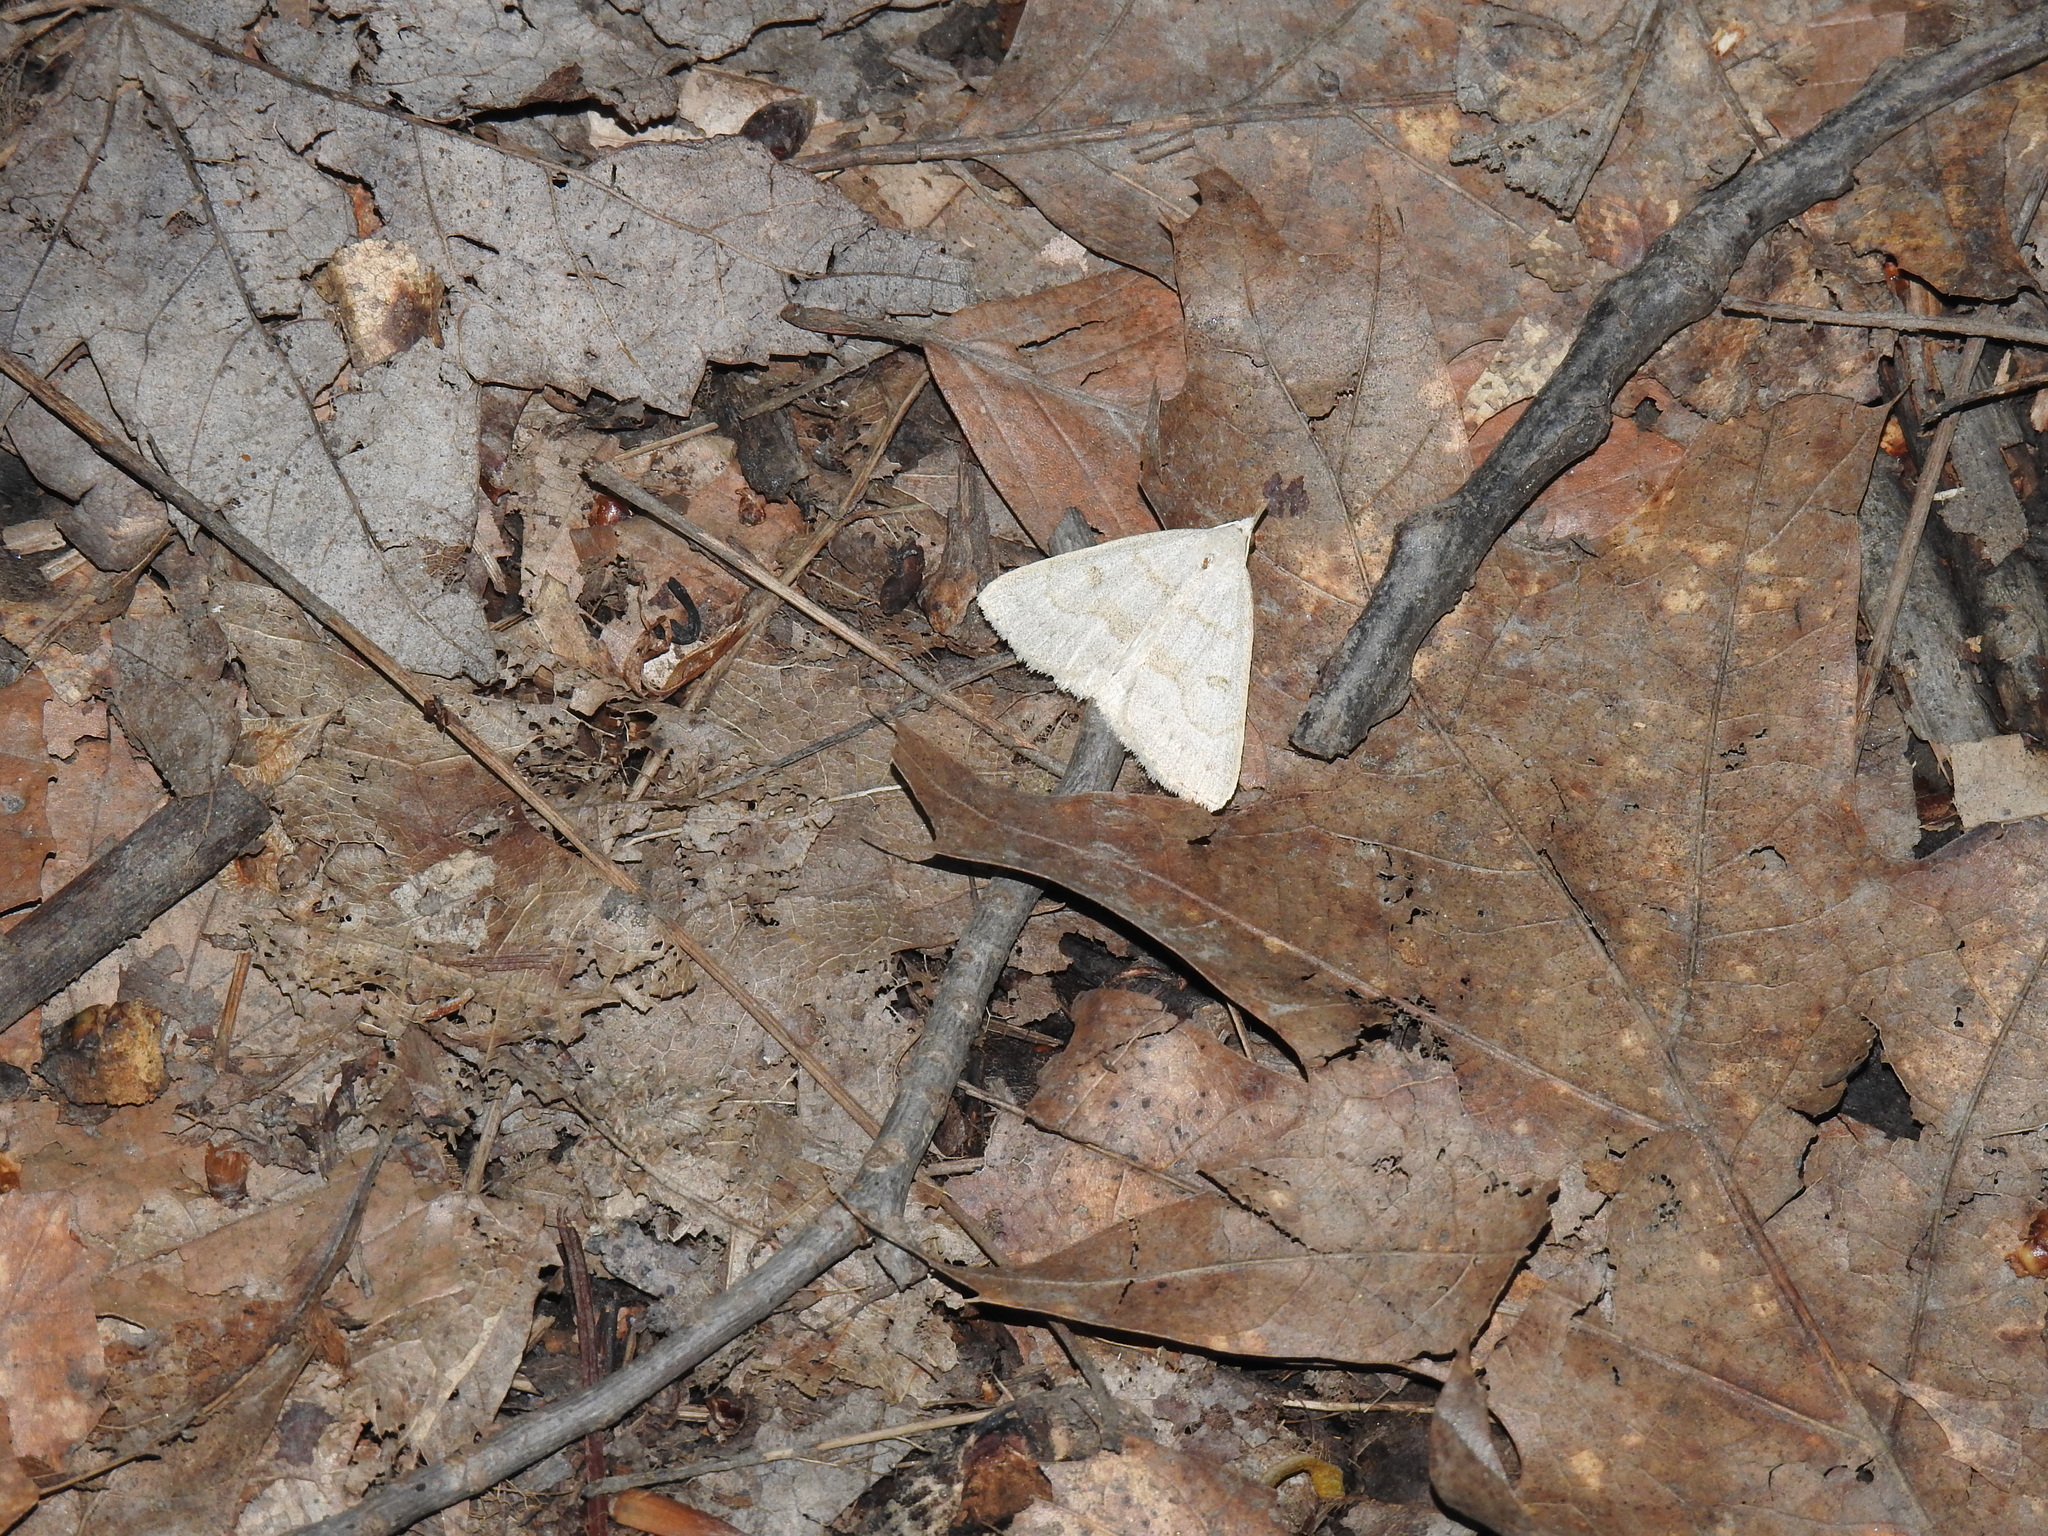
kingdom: Animalia
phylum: Arthropoda
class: Insecta
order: Lepidoptera
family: Erebidae
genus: Macrochilo
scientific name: Macrochilo morbidalis
